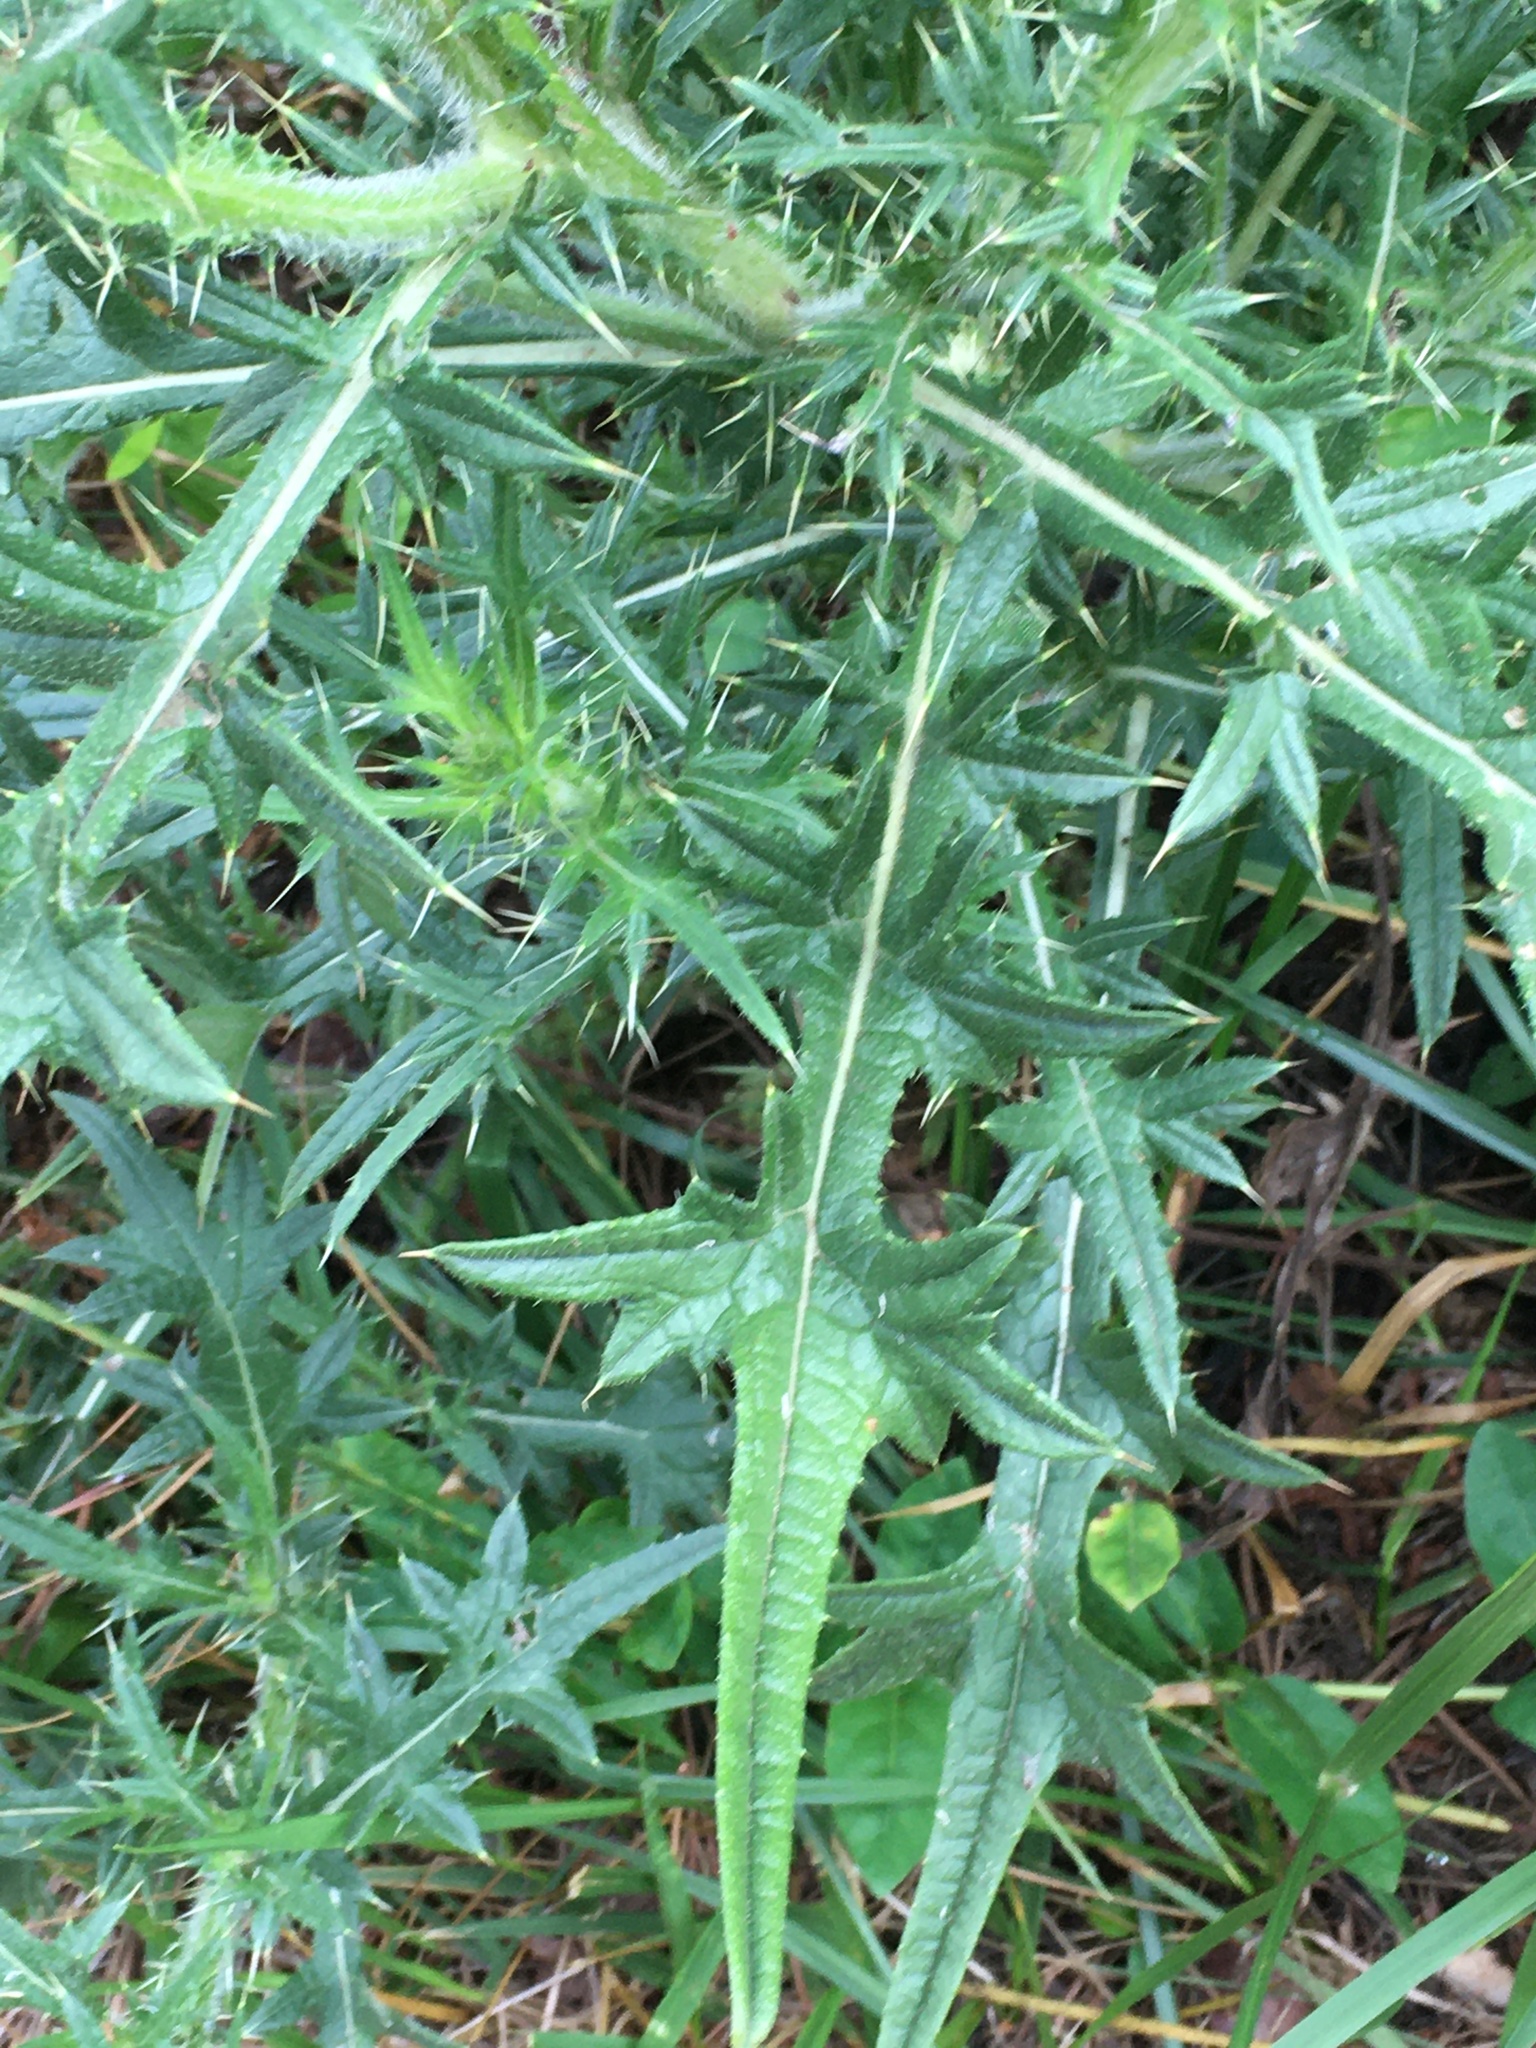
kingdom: Plantae
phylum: Tracheophyta
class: Magnoliopsida
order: Asterales
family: Asteraceae
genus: Cirsium
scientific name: Cirsium vulgare
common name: Bull thistle
